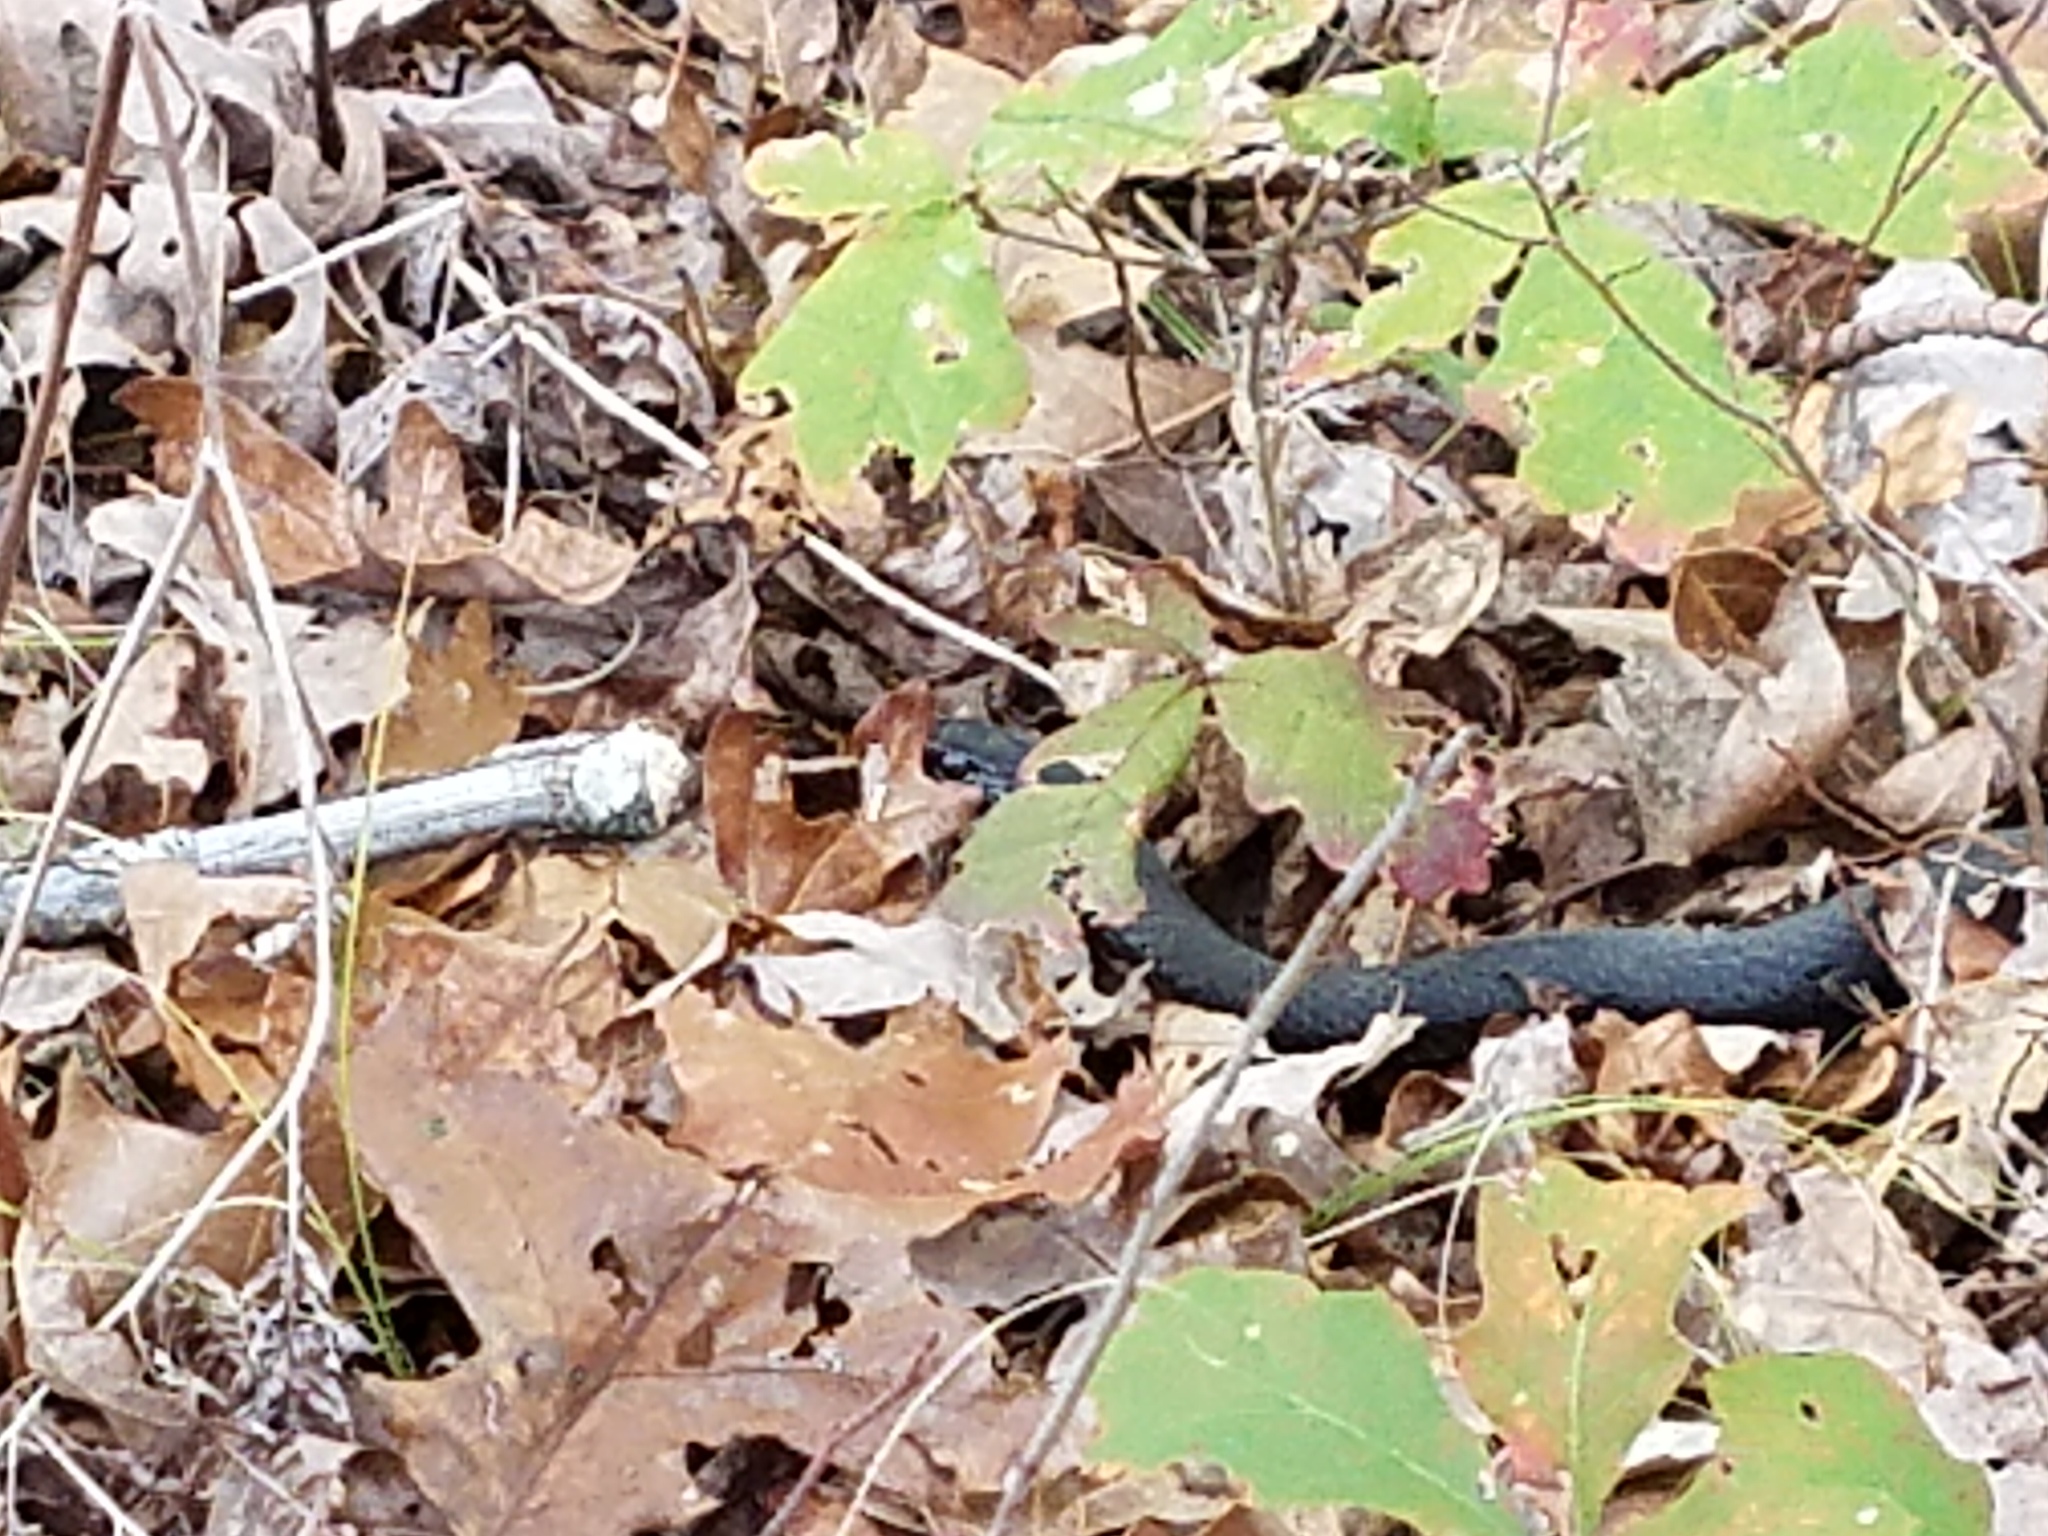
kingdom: Animalia
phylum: Chordata
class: Squamata
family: Colubridae
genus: Coluber
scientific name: Coluber constrictor
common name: Eastern racer
